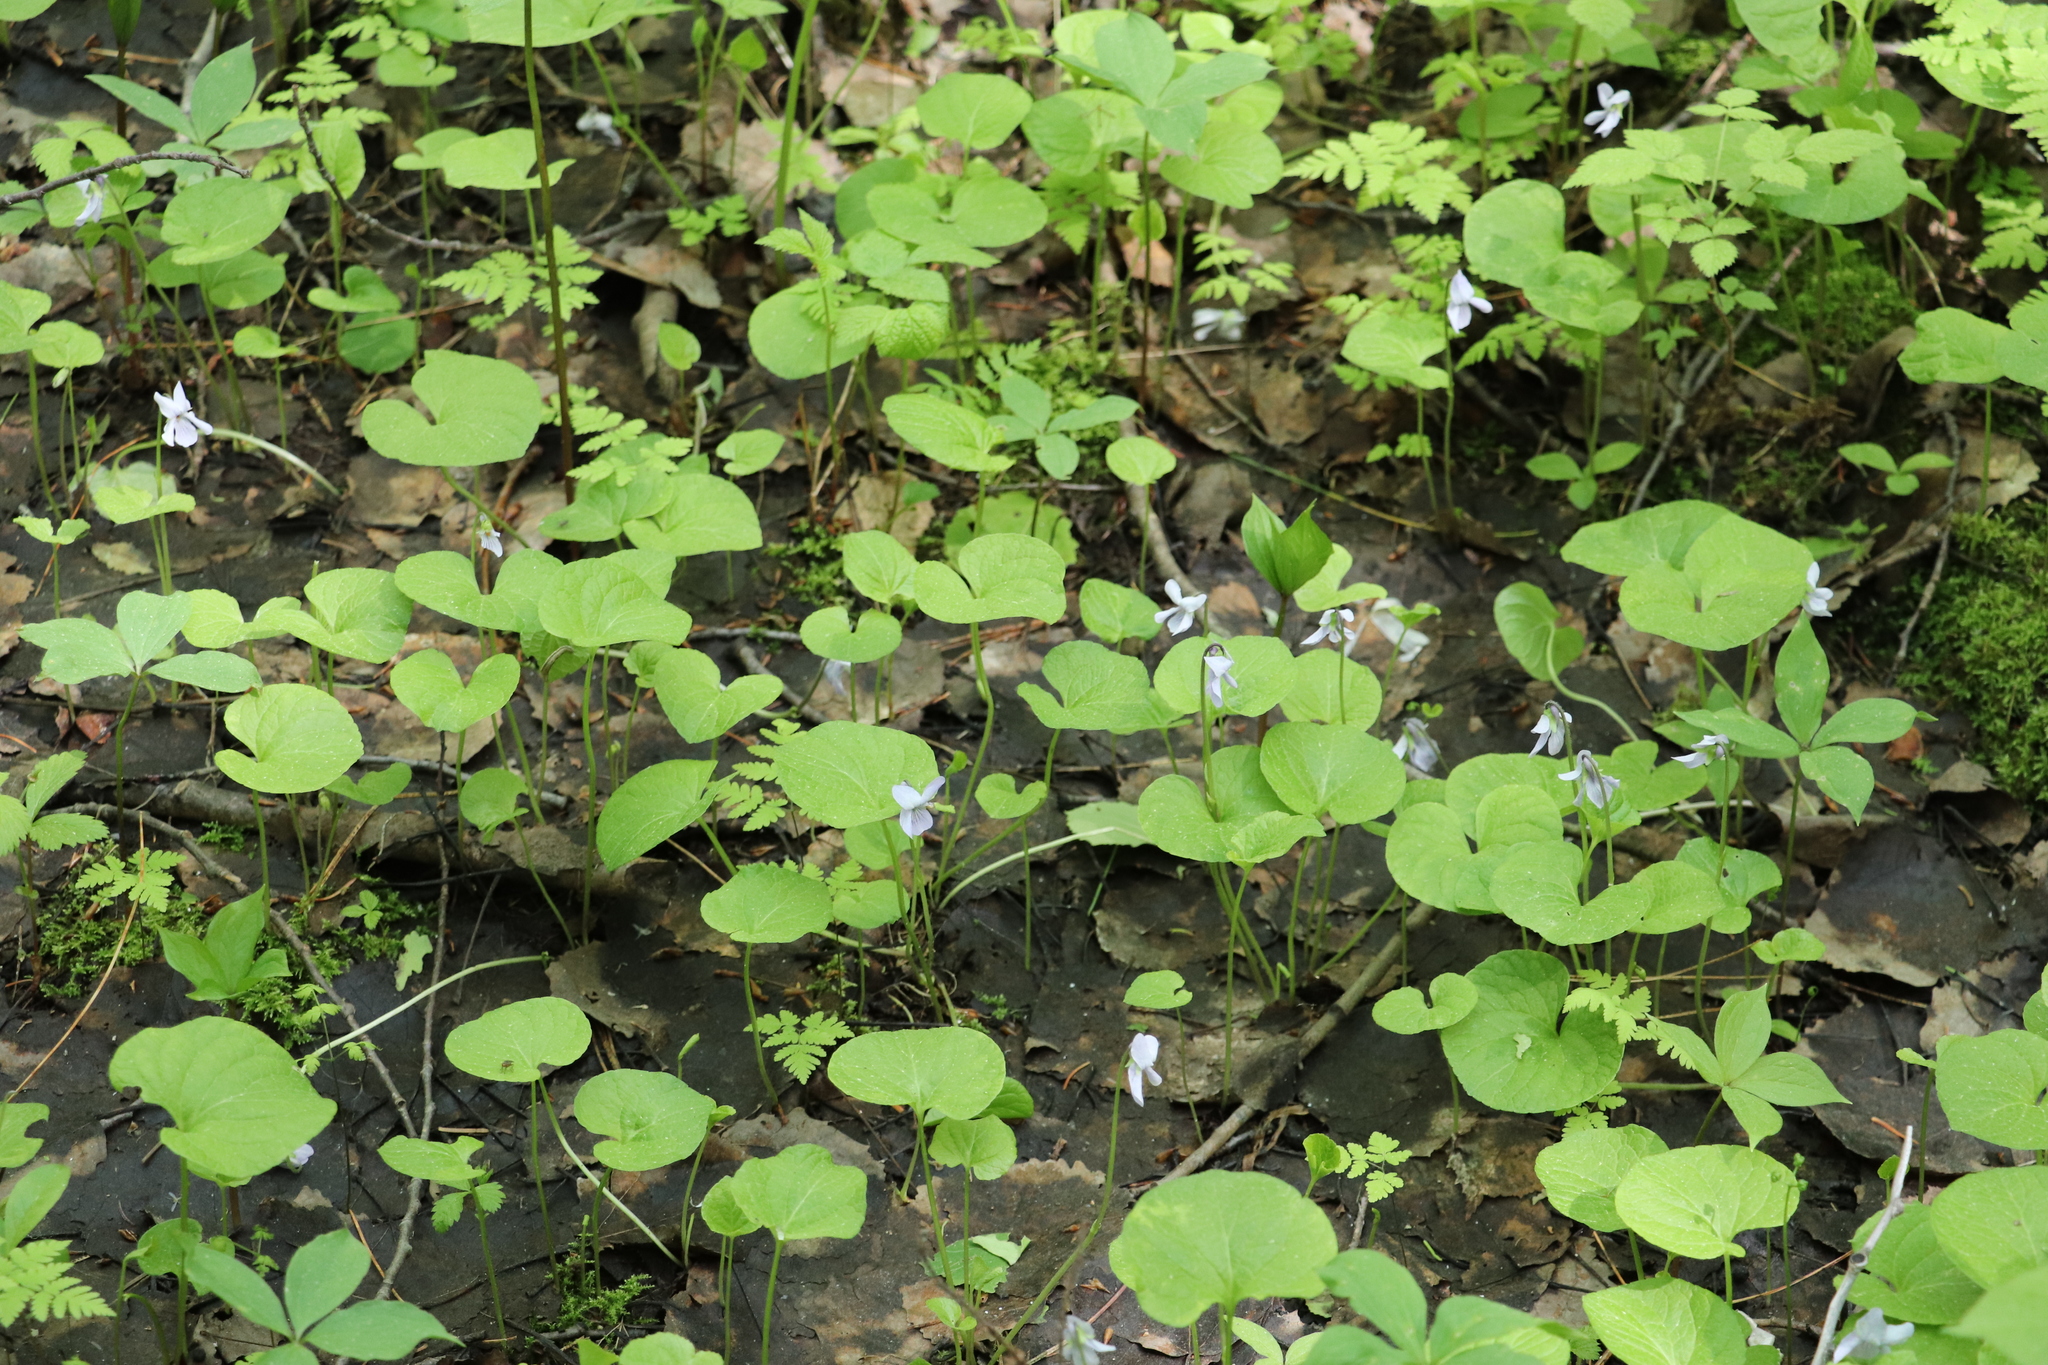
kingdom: Plantae
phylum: Tracheophyta
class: Magnoliopsida
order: Malpighiales
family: Violaceae
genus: Viola
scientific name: Viola epipsila
